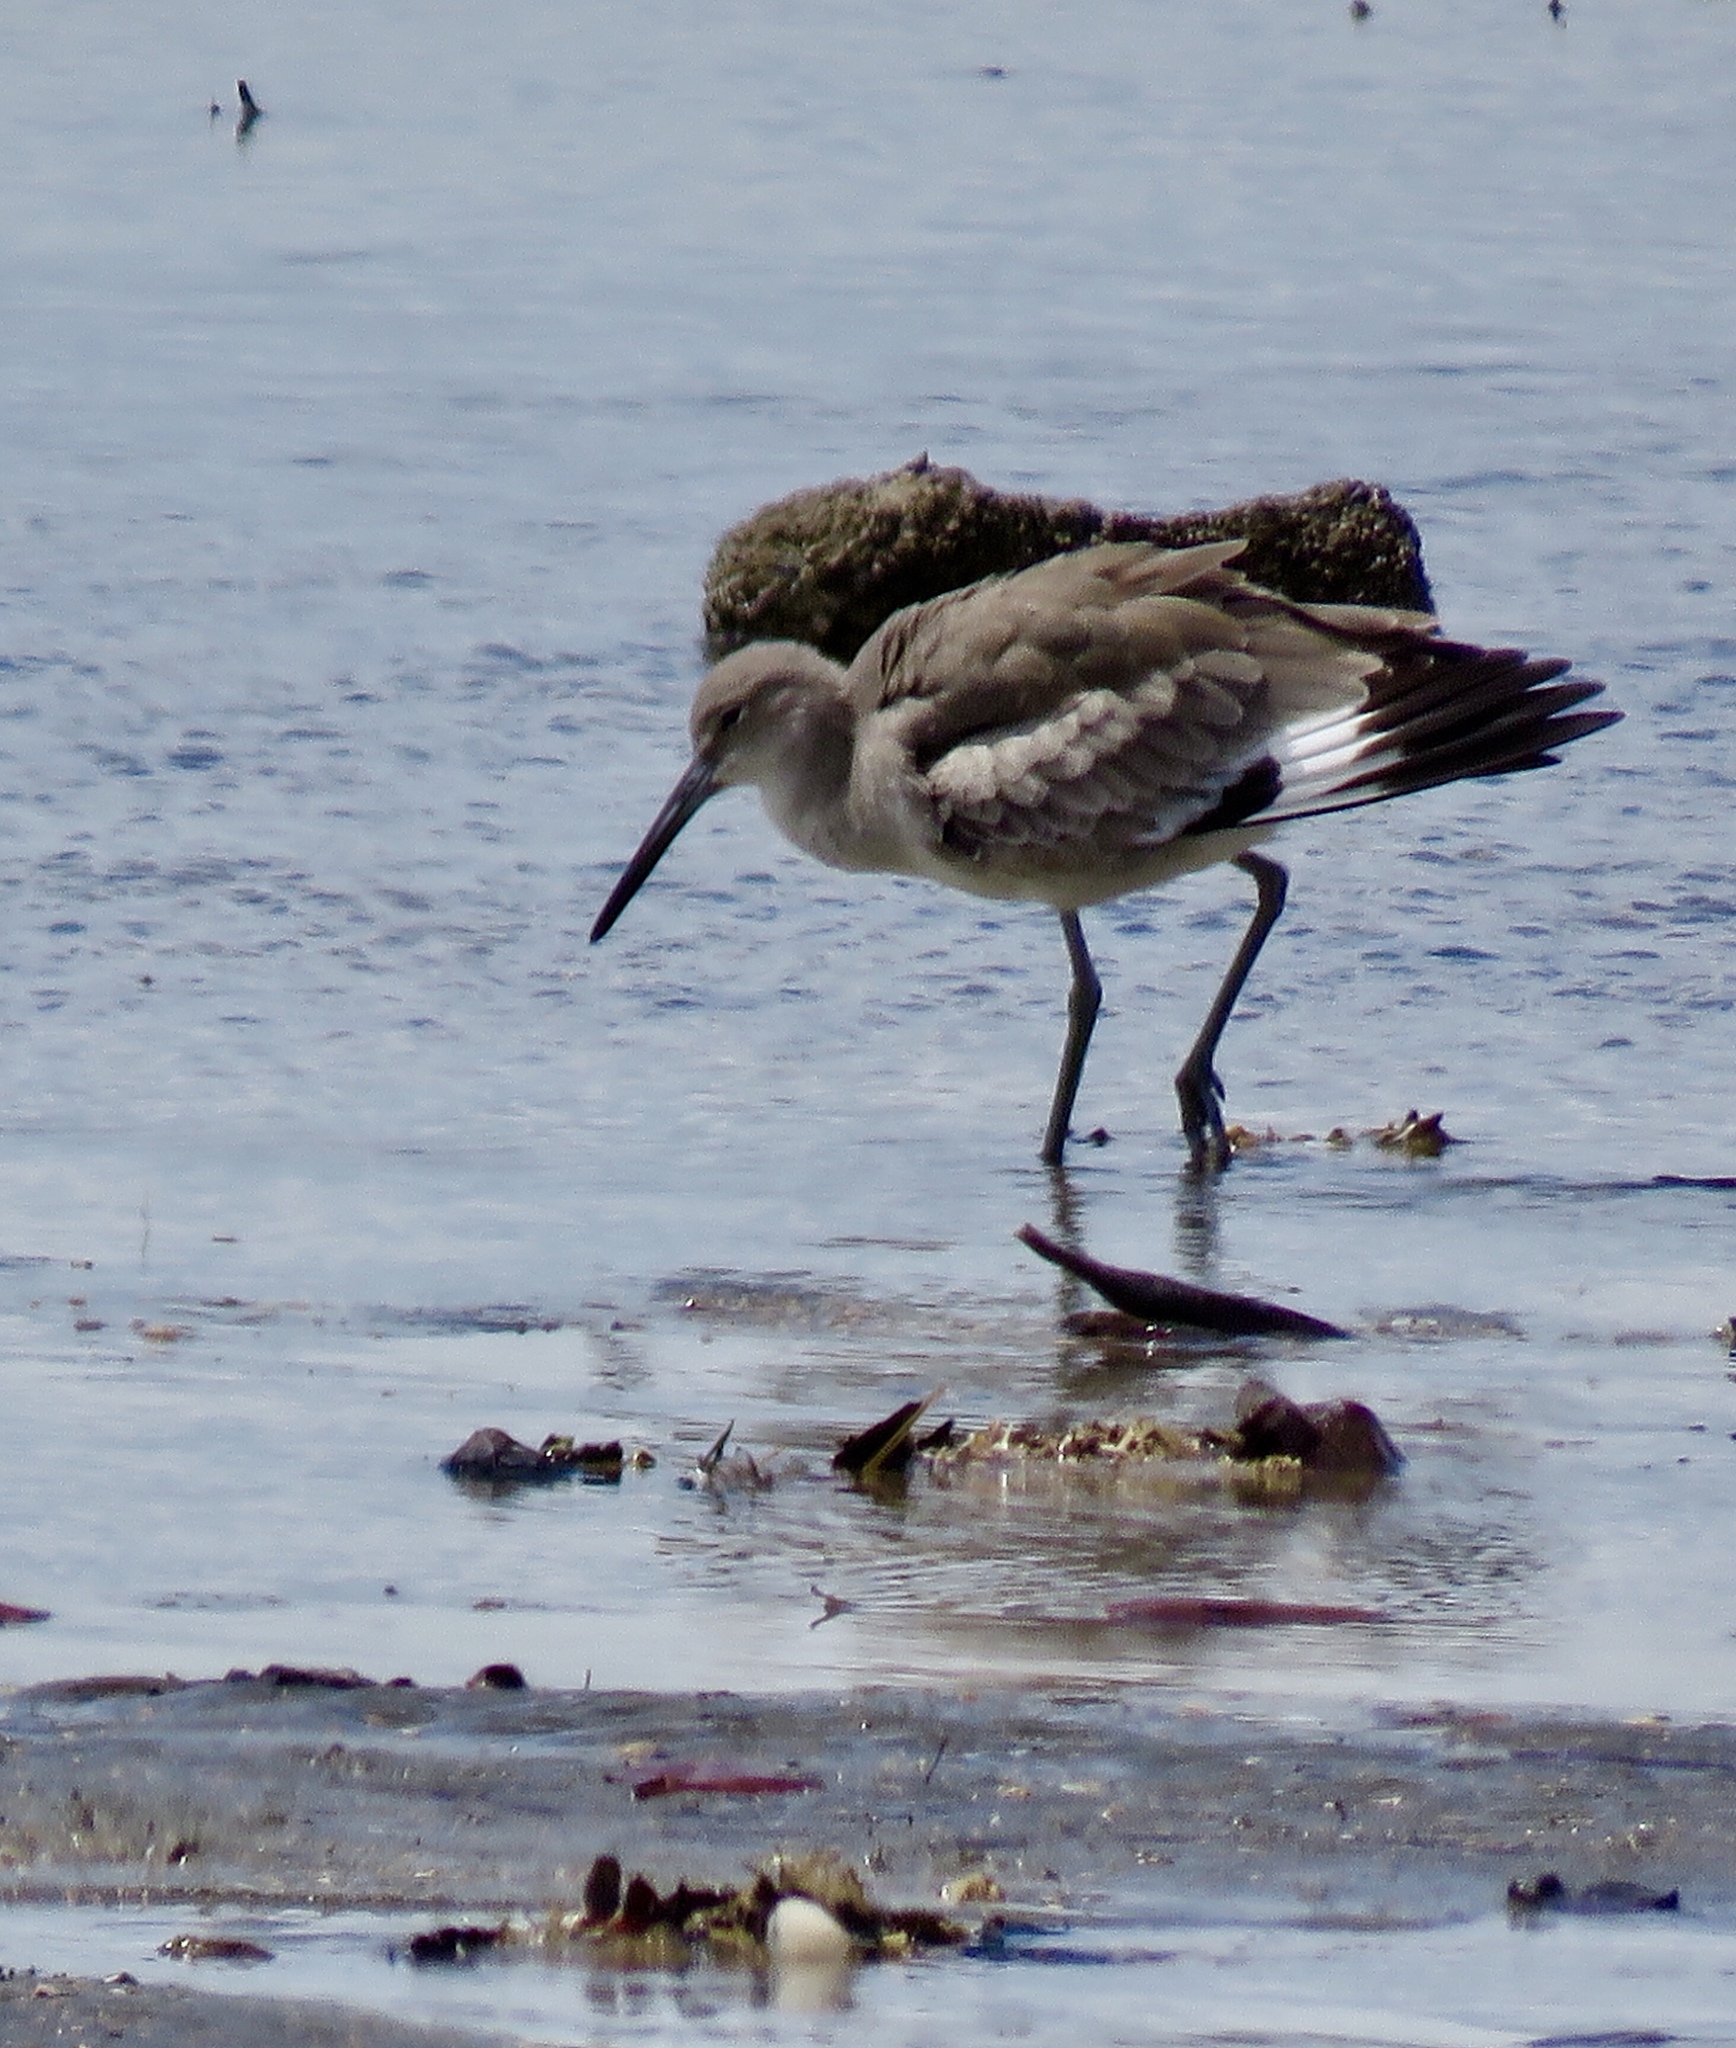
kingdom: Animalia
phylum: Chordata
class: Aves
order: Charadriiformes
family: Scolopacidae
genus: Tringa
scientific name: Tringa semipalmata
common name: Willet
